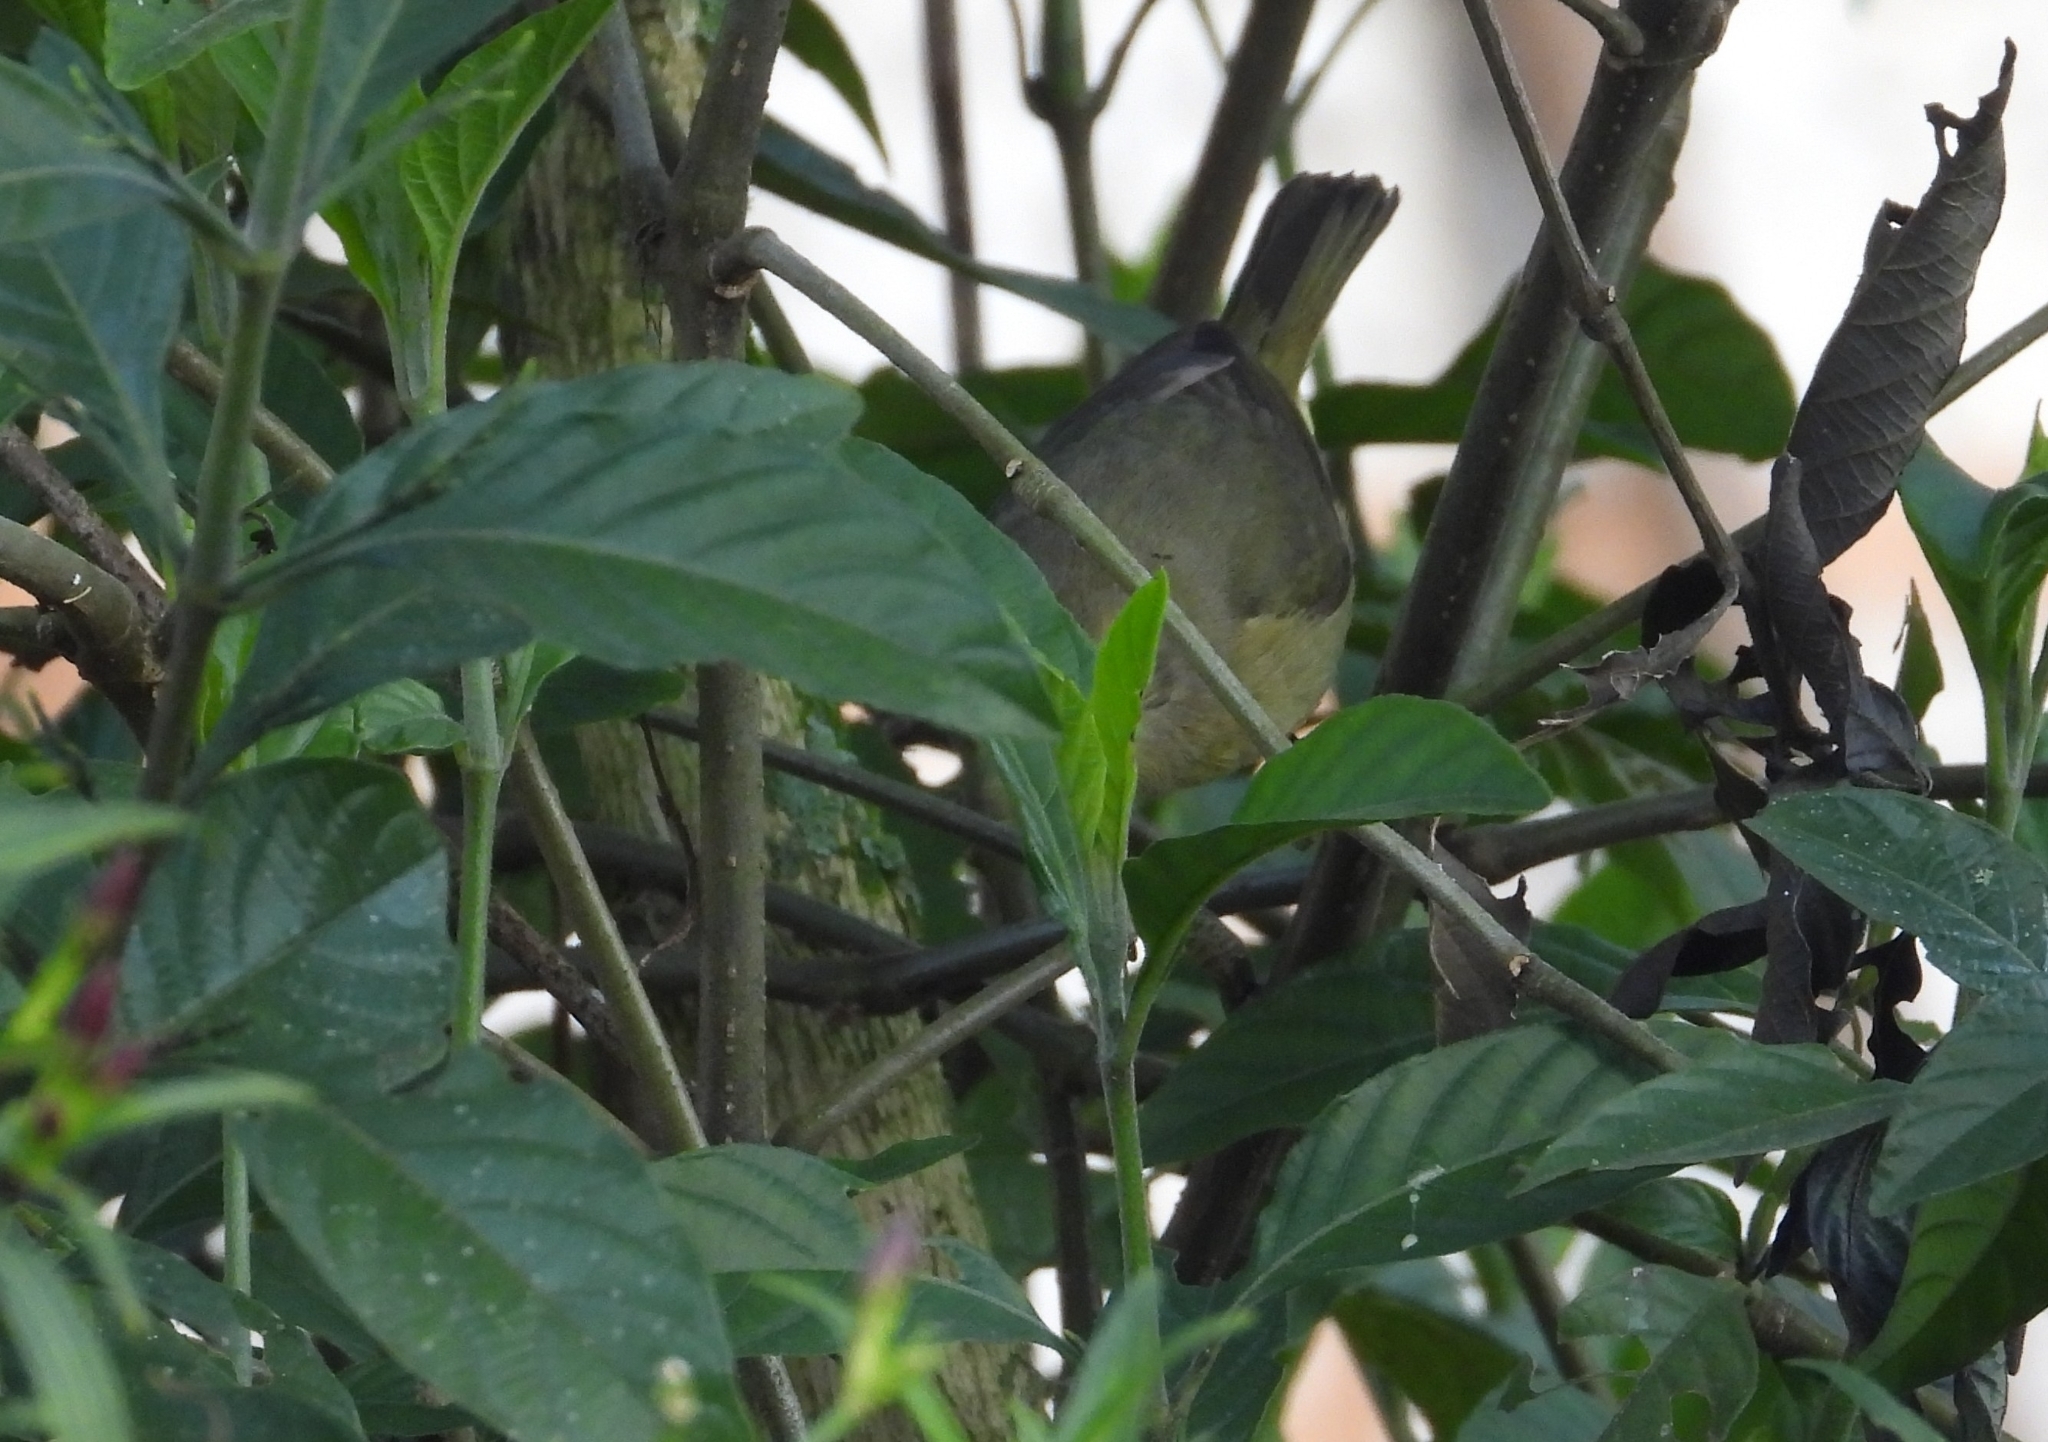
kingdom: Animalia
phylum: Chordata
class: Aves
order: Passeriformes
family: Parulidae
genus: Leiothlypis
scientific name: Leiothlypis celata
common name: Orange-crowned warbler
